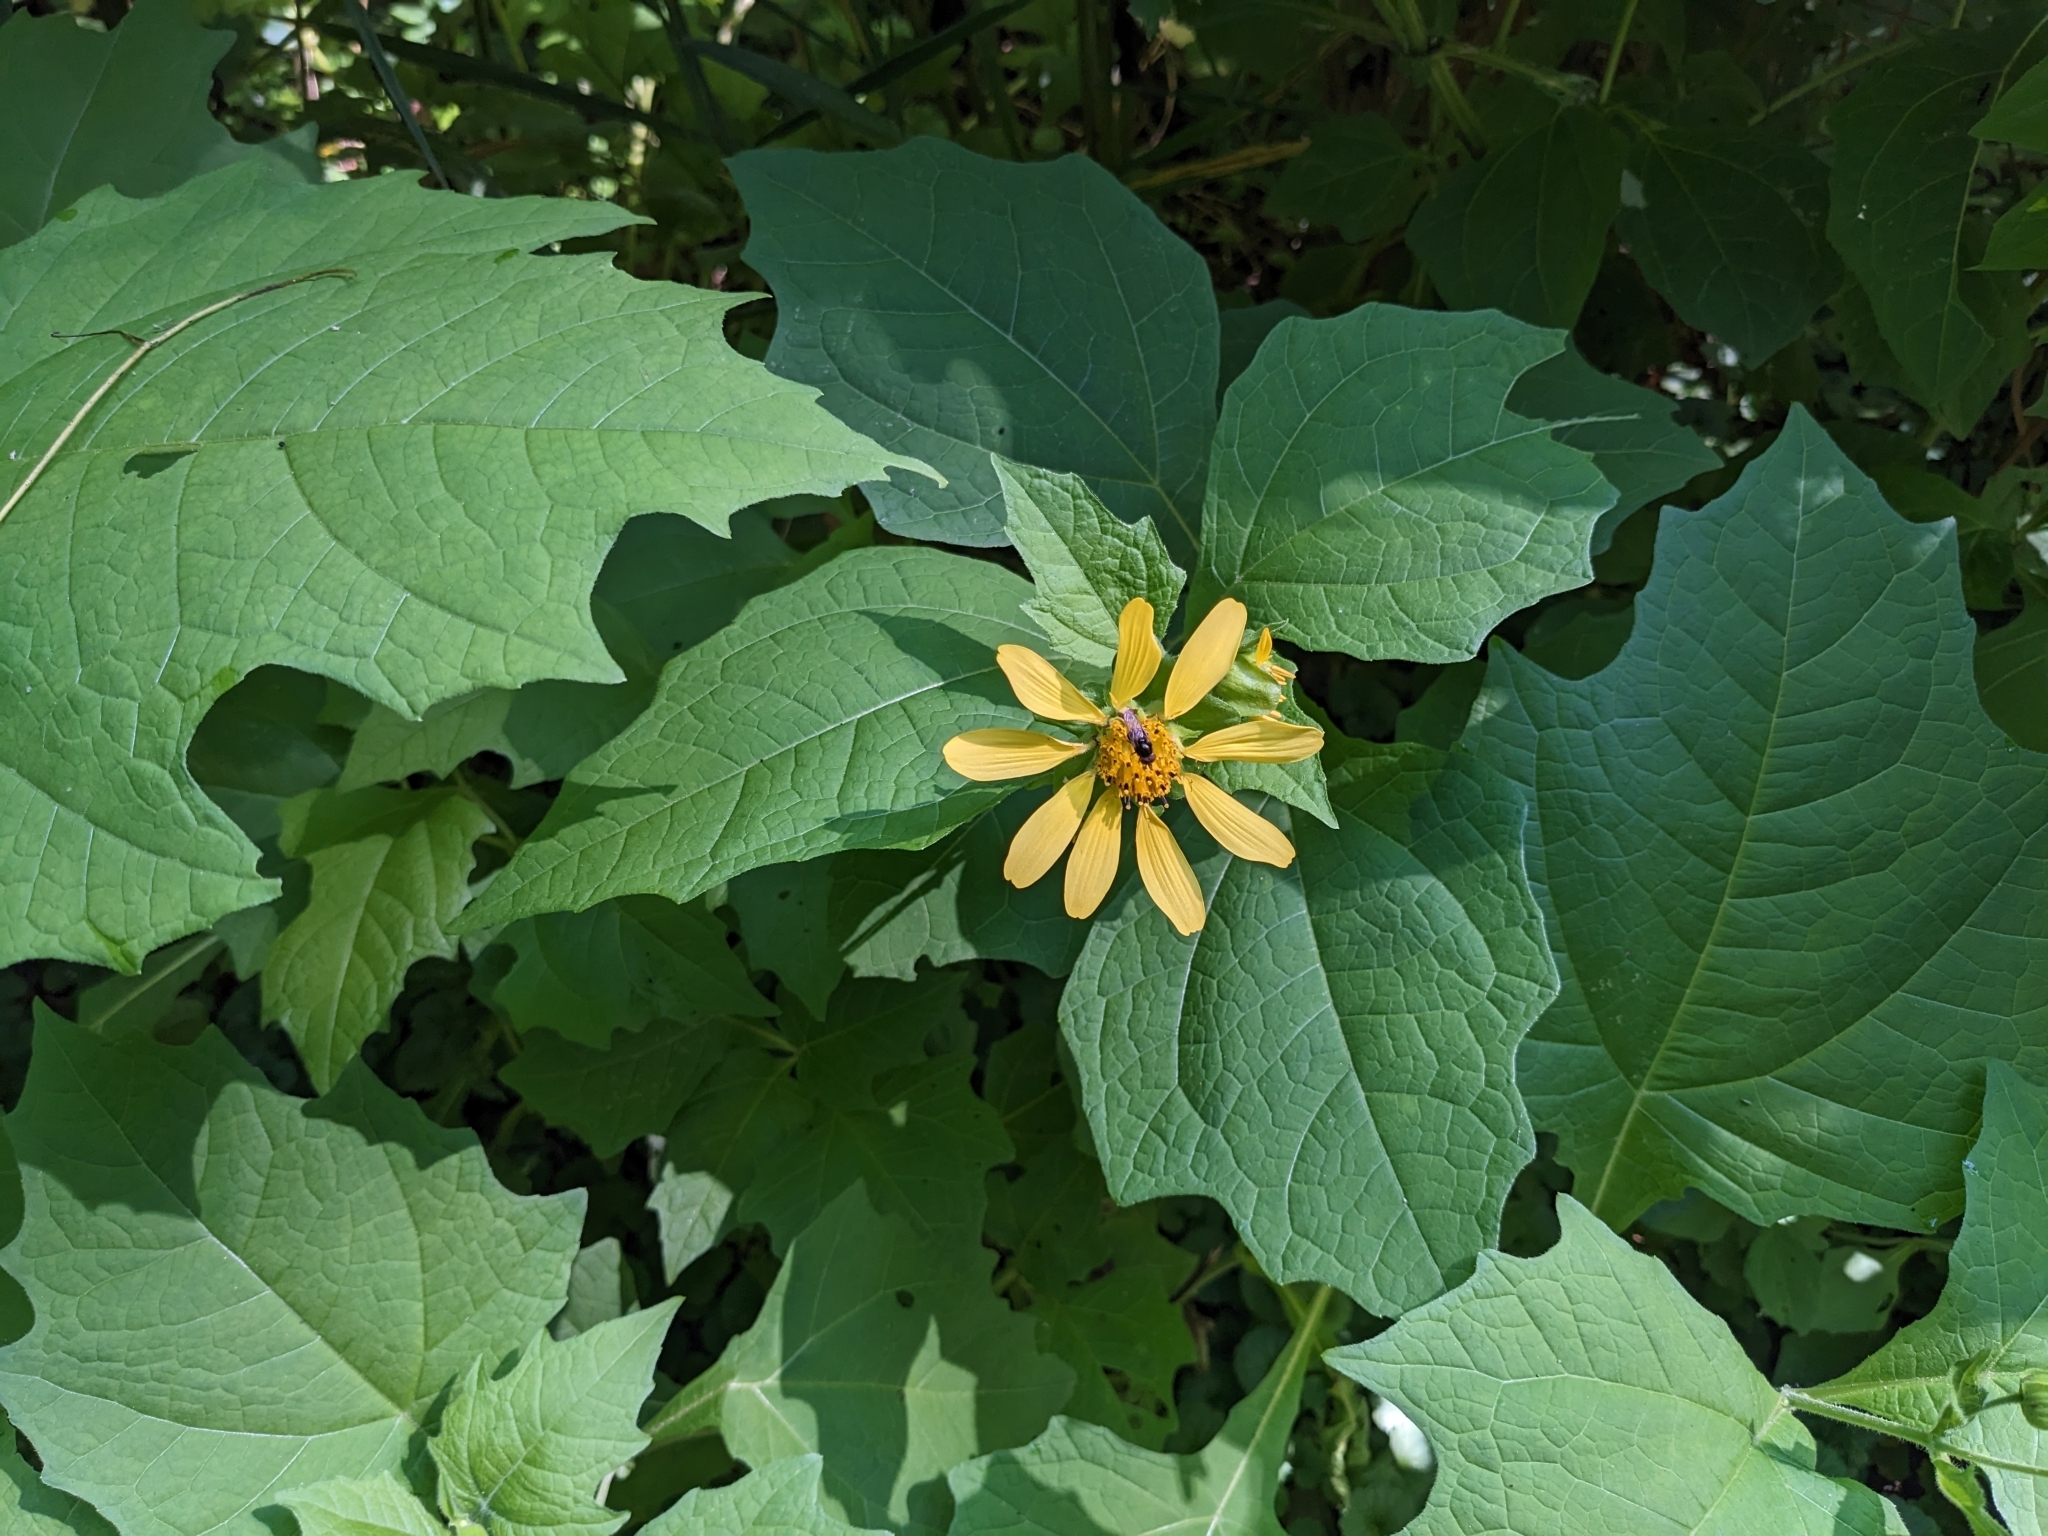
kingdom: Plantae
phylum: Tracheophyta
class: Magnoliopsida
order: Asterales
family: Asteraceae
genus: Smallanthus
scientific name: Smallanthus uvedalia
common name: Bear's-foot
